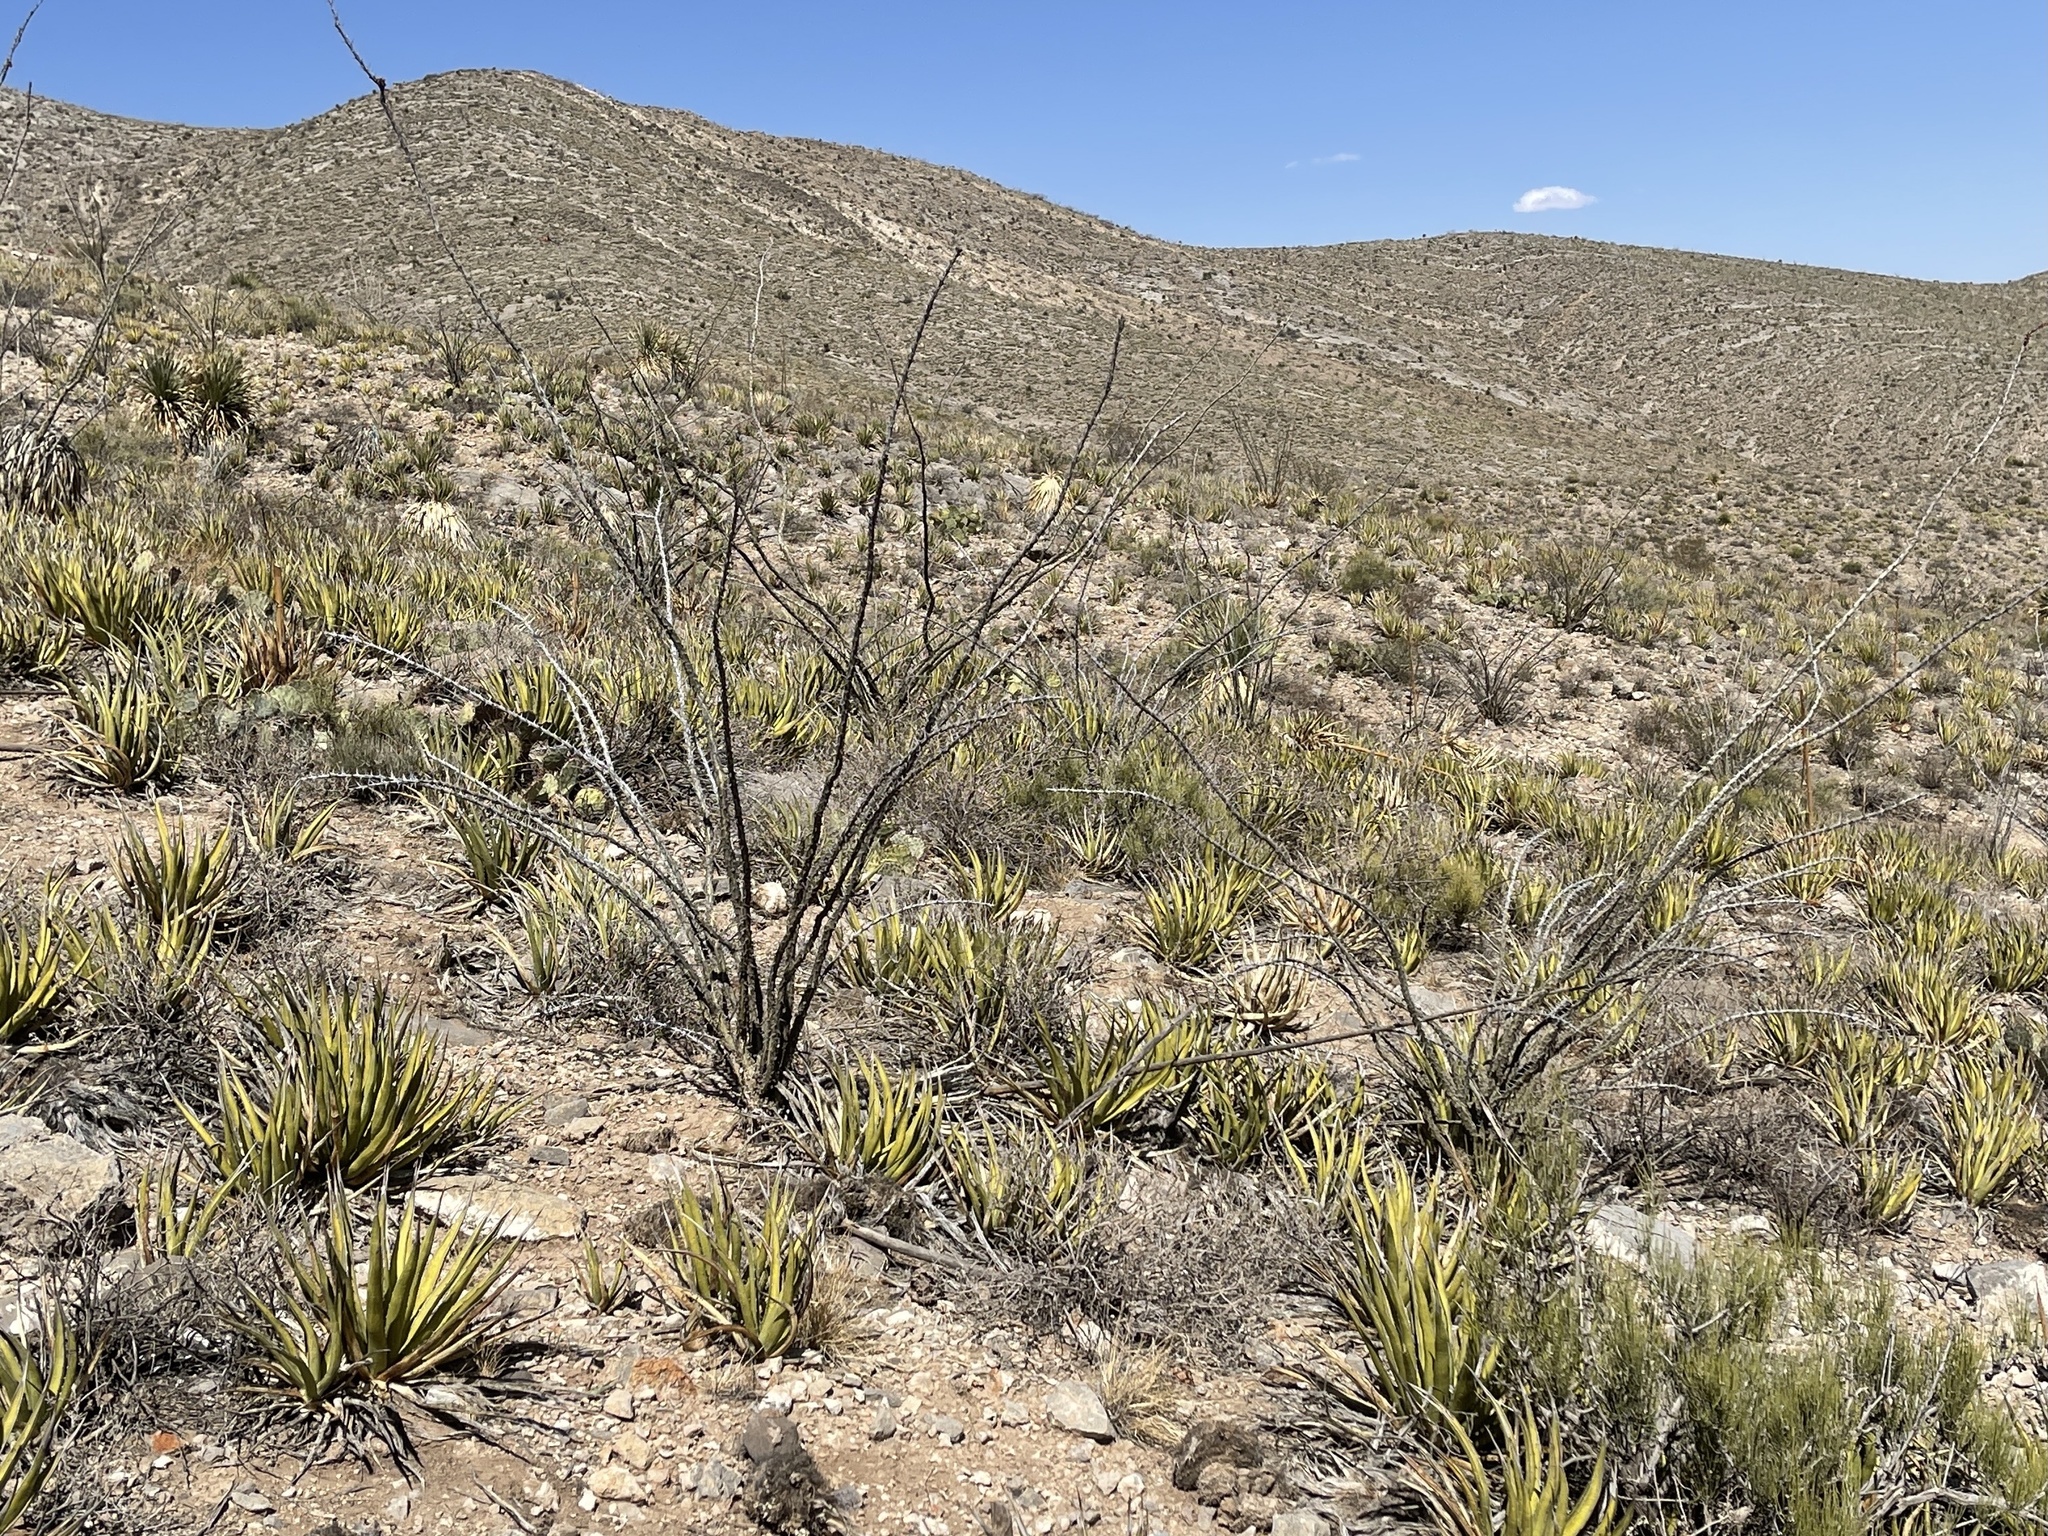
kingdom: Plantae
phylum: Tracheophyta
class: Magnoliopsida
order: Ericales
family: Fouquieriaceae
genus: Fouquieria
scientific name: Fouquieria splendens
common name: Vine-cactus
